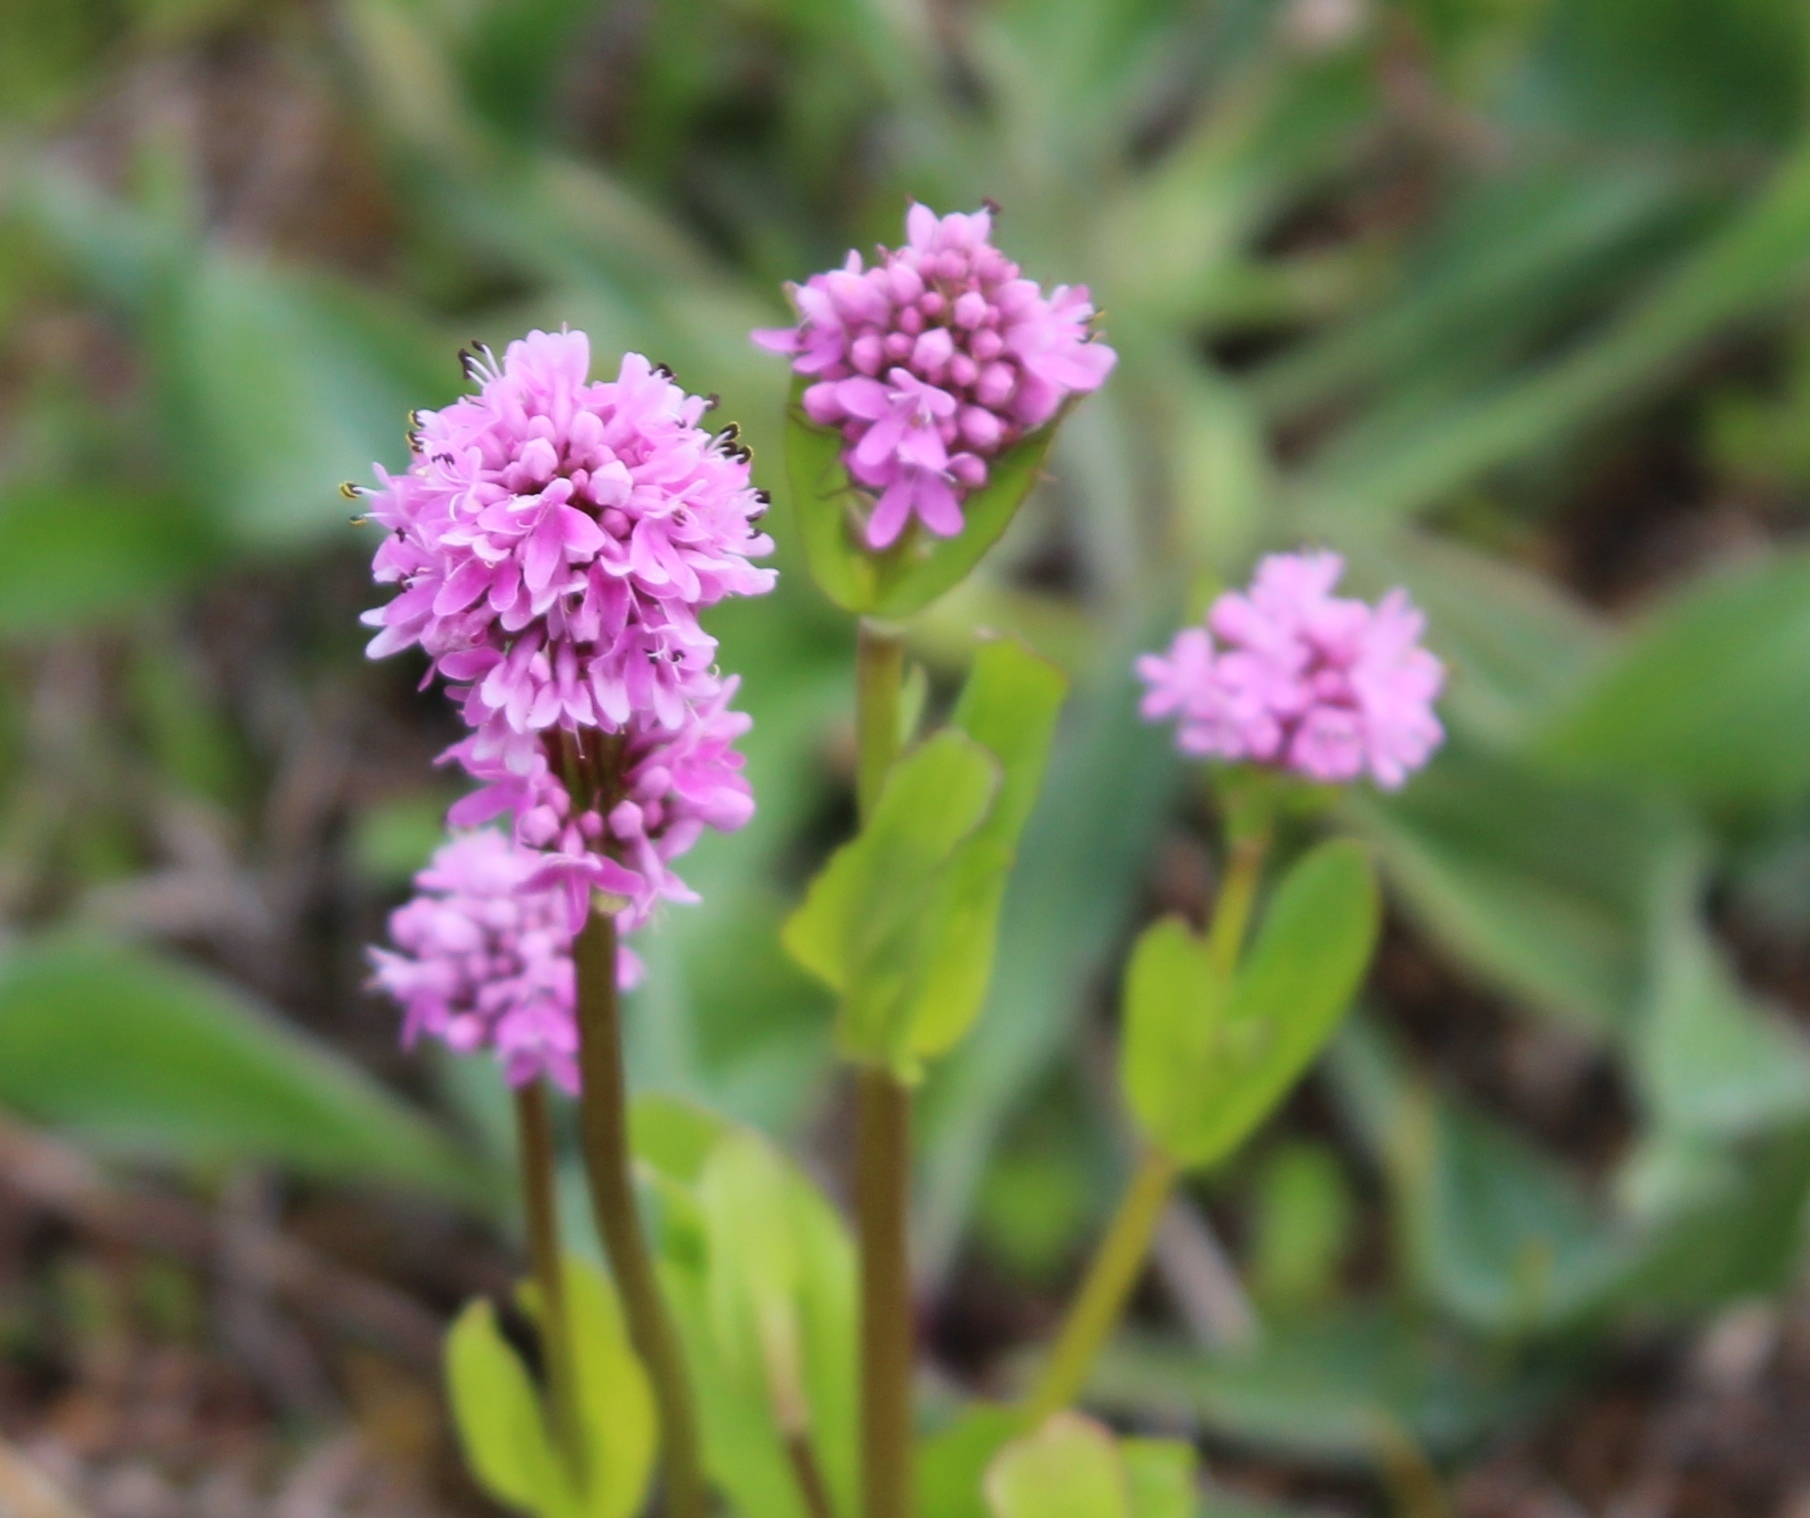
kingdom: Plantae
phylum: Tracheophyta
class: Magnoliopsida
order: Dipsacales
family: Caprifoliaceae
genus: Plectritis
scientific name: Plectritis congesta
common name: Pink plectritis
